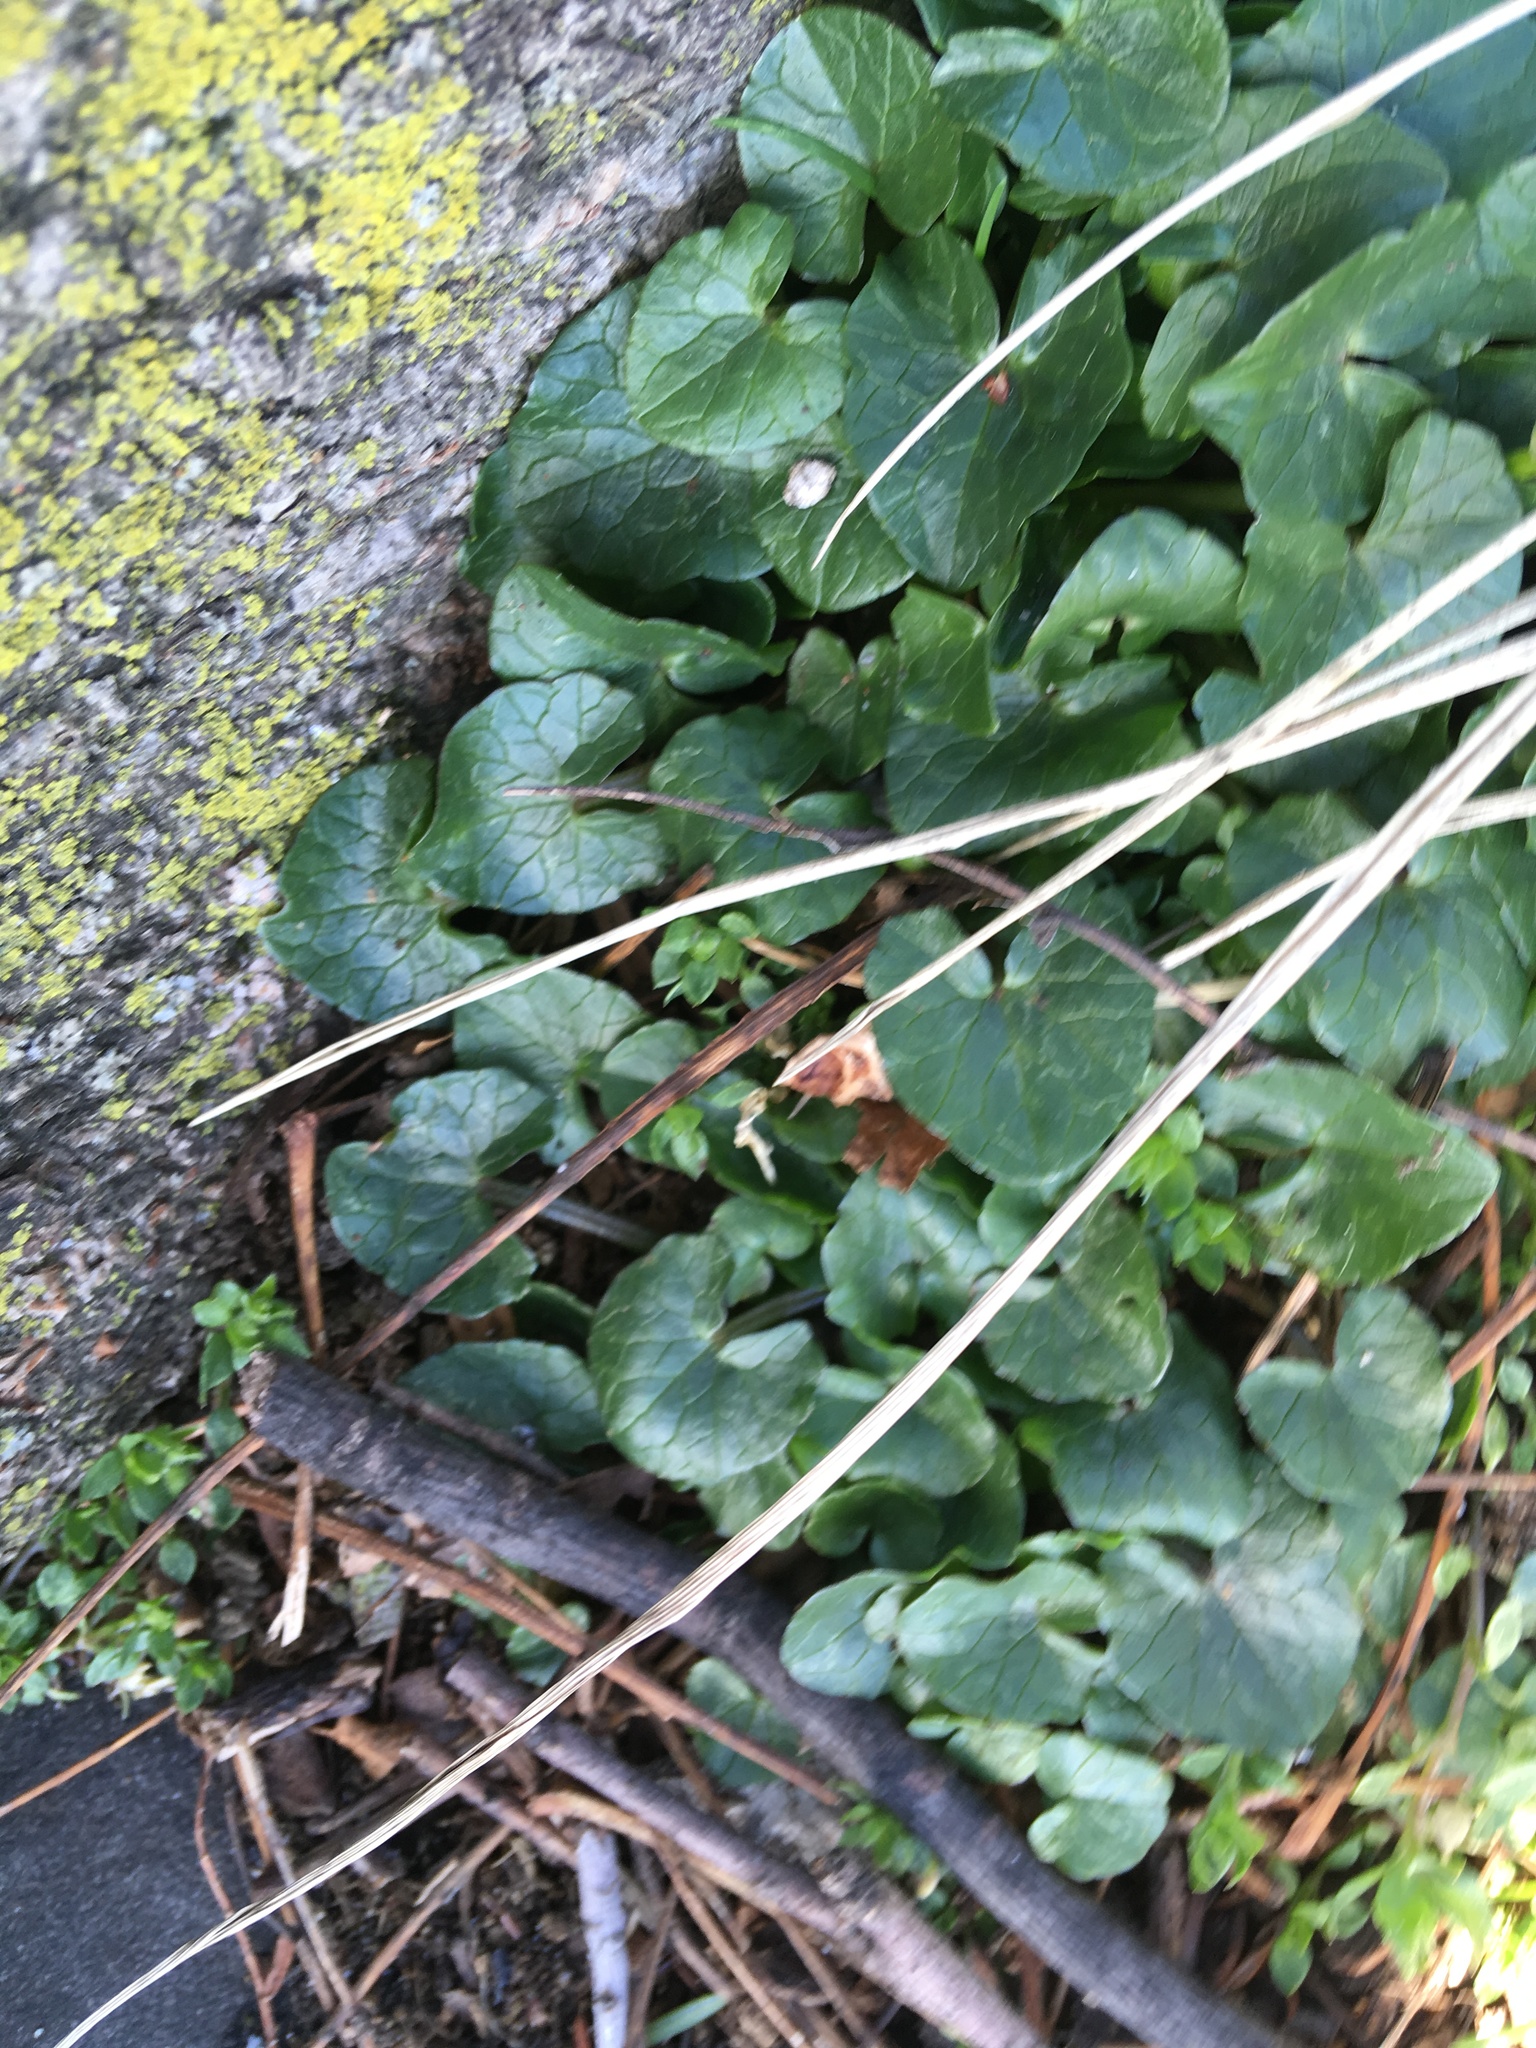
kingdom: Plantae
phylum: Tracheophyta
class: Magnoliopsida
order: Ranunculales
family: Ranunculaceae
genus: Ficaria
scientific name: Ficaria verna
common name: Lesser celandine
